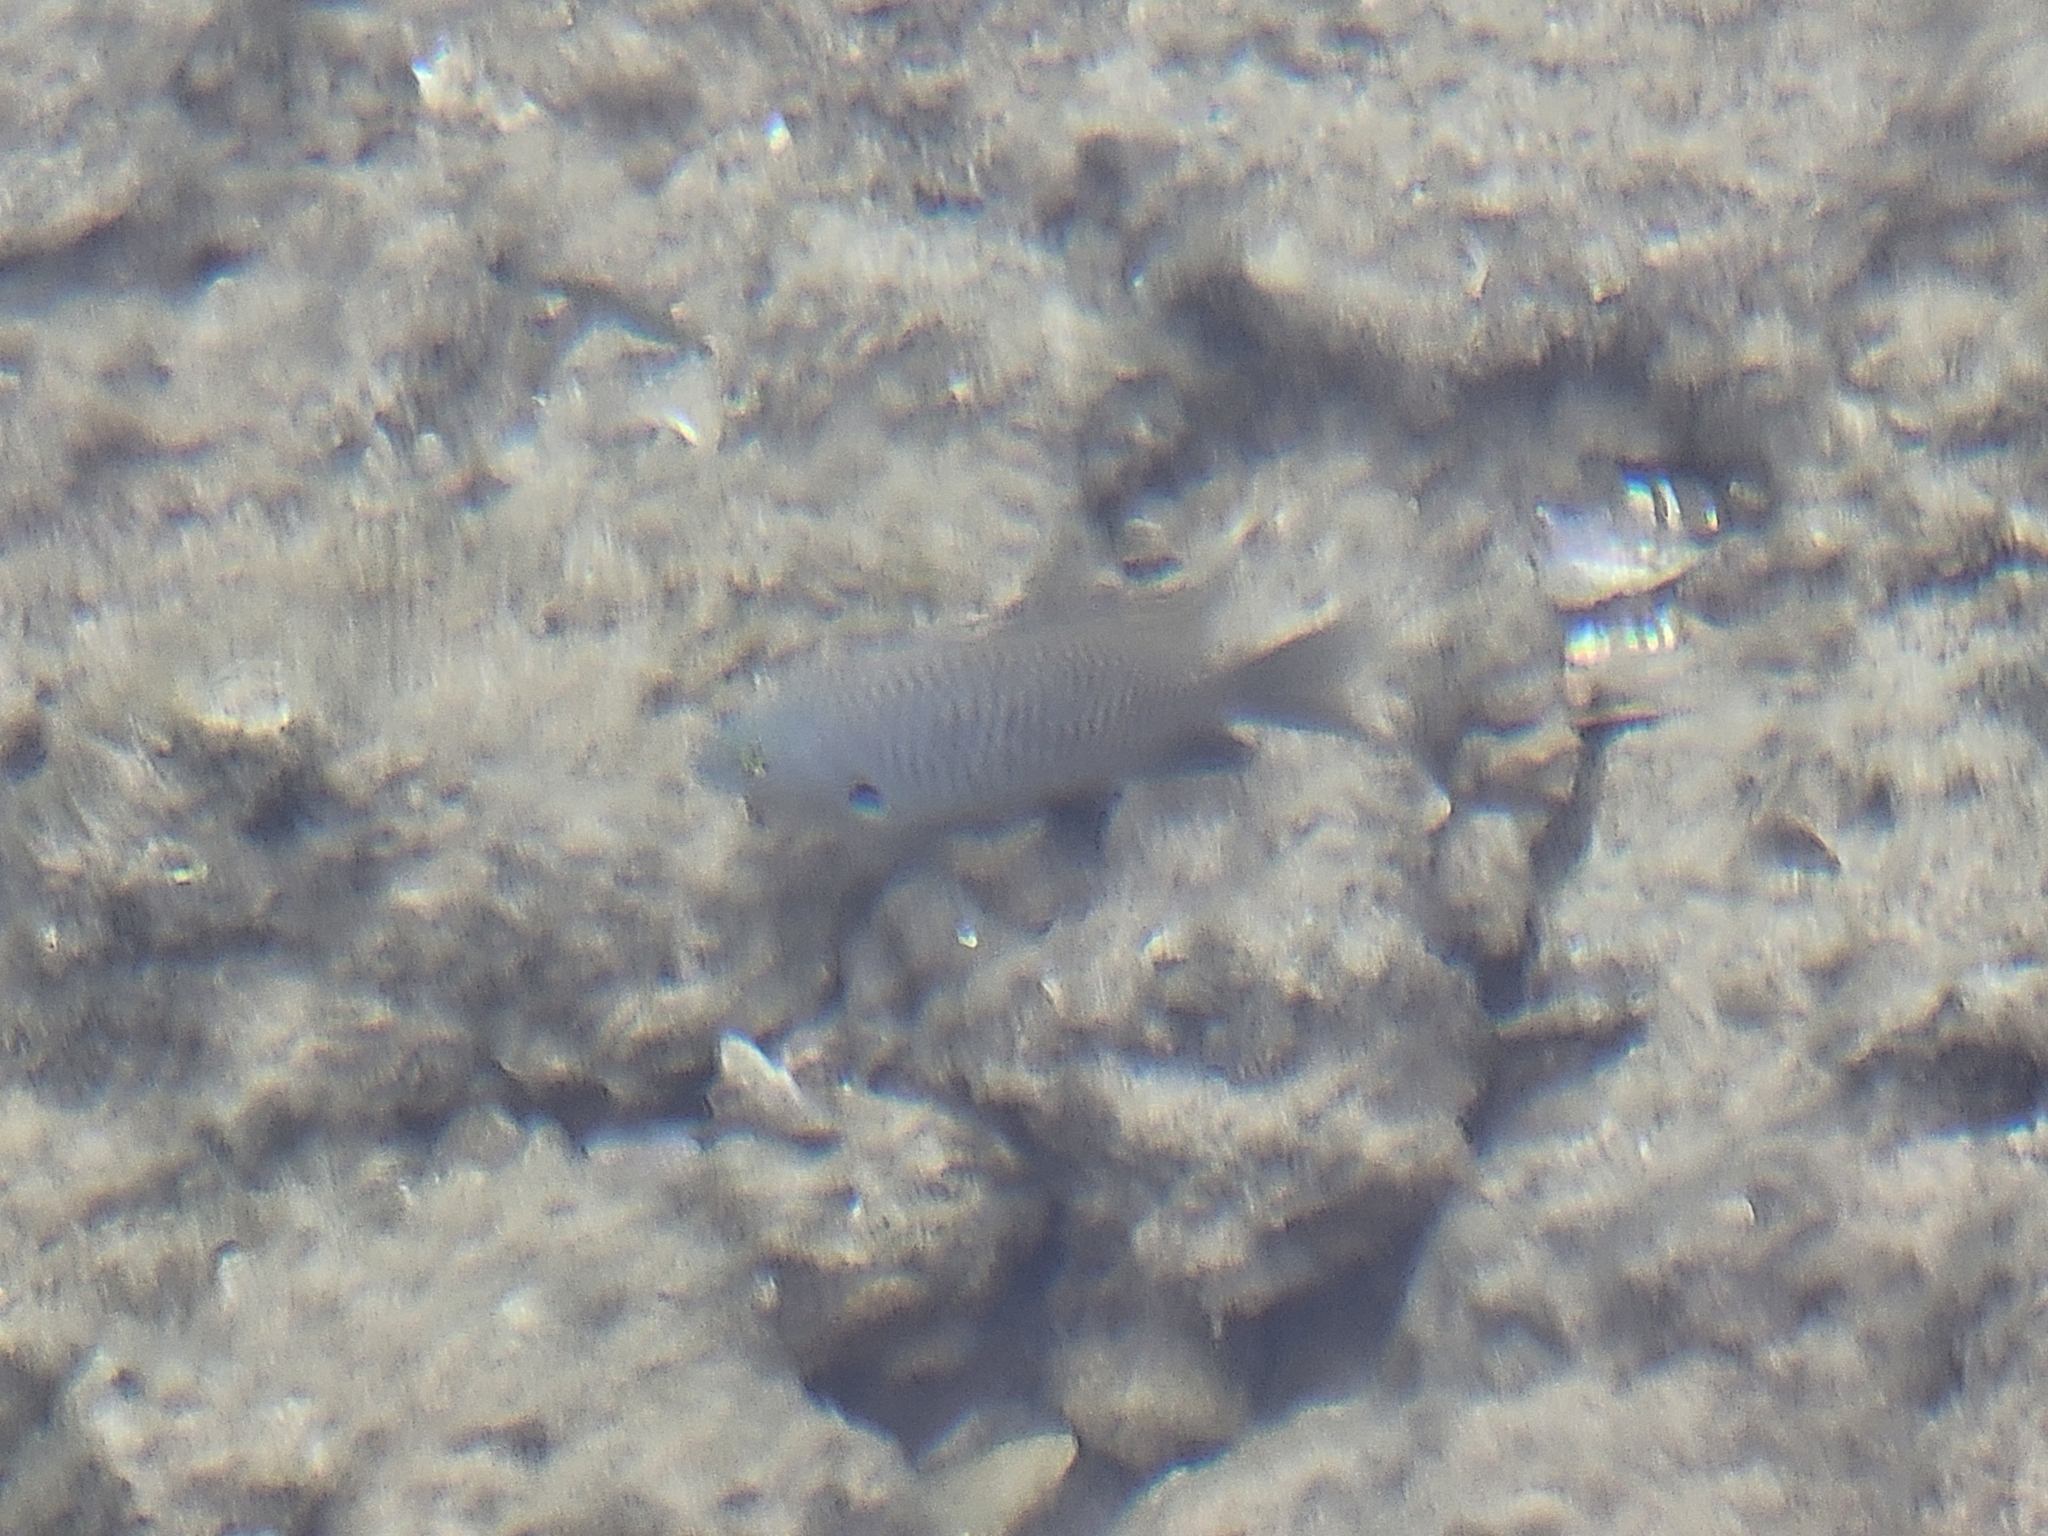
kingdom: Animalia
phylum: Chordata
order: Perciformes
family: Pomacentridae
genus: Stegastes
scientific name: Stegastes fasciolatus
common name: Pacific gregory
